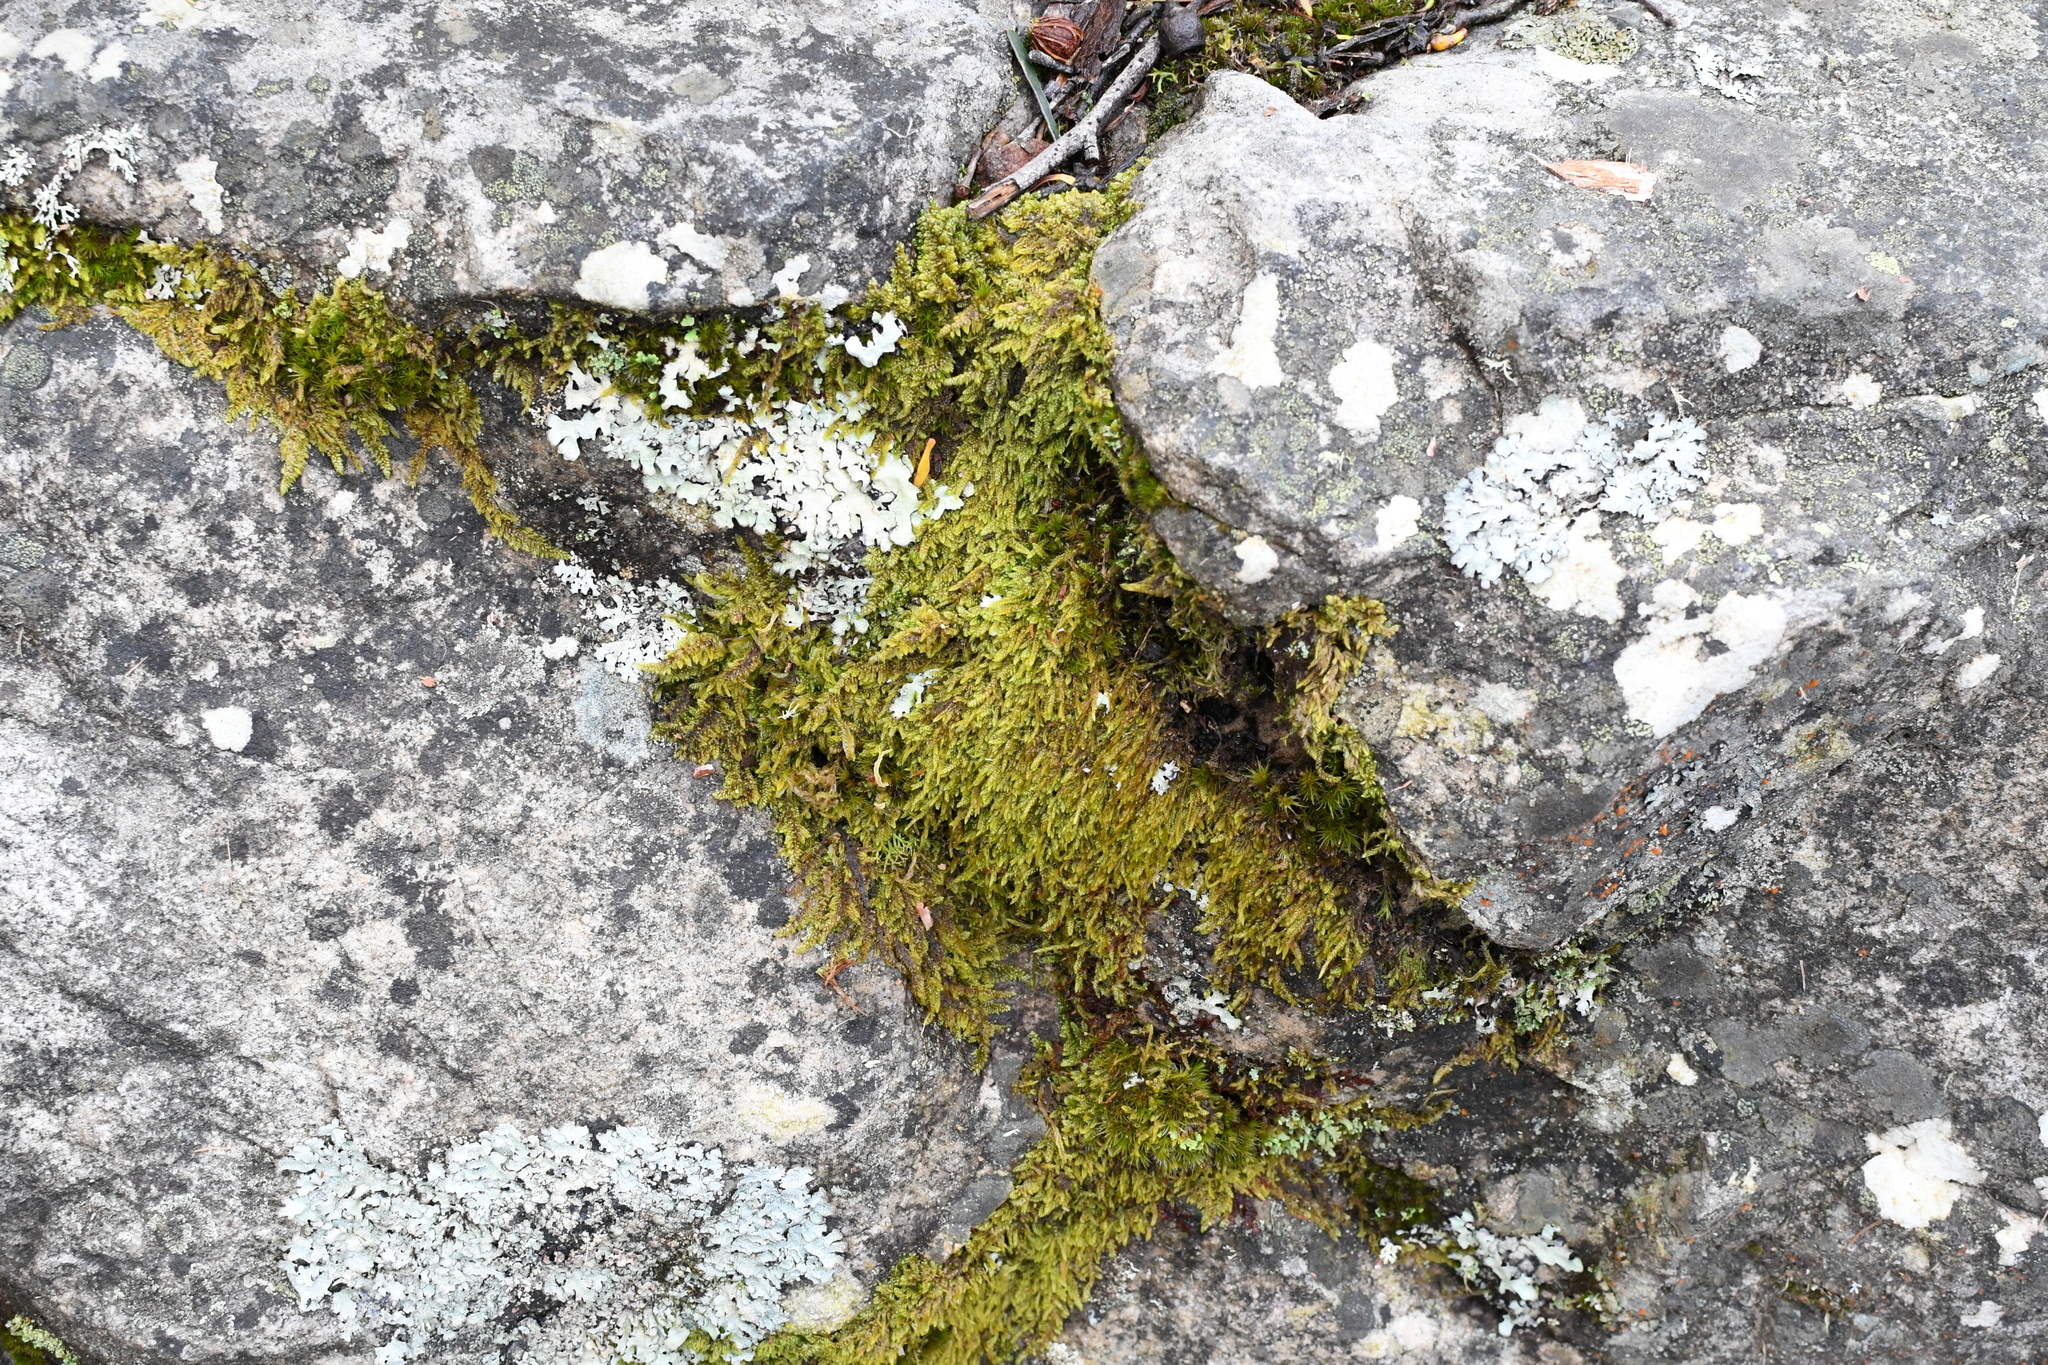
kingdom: Plantae
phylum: Bryophyta
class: Bryopsida
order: Hypnales
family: Hypnaceae
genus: Hypnum
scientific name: Hypnum cupressiforme
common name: Cypress-leaved plait-moss
